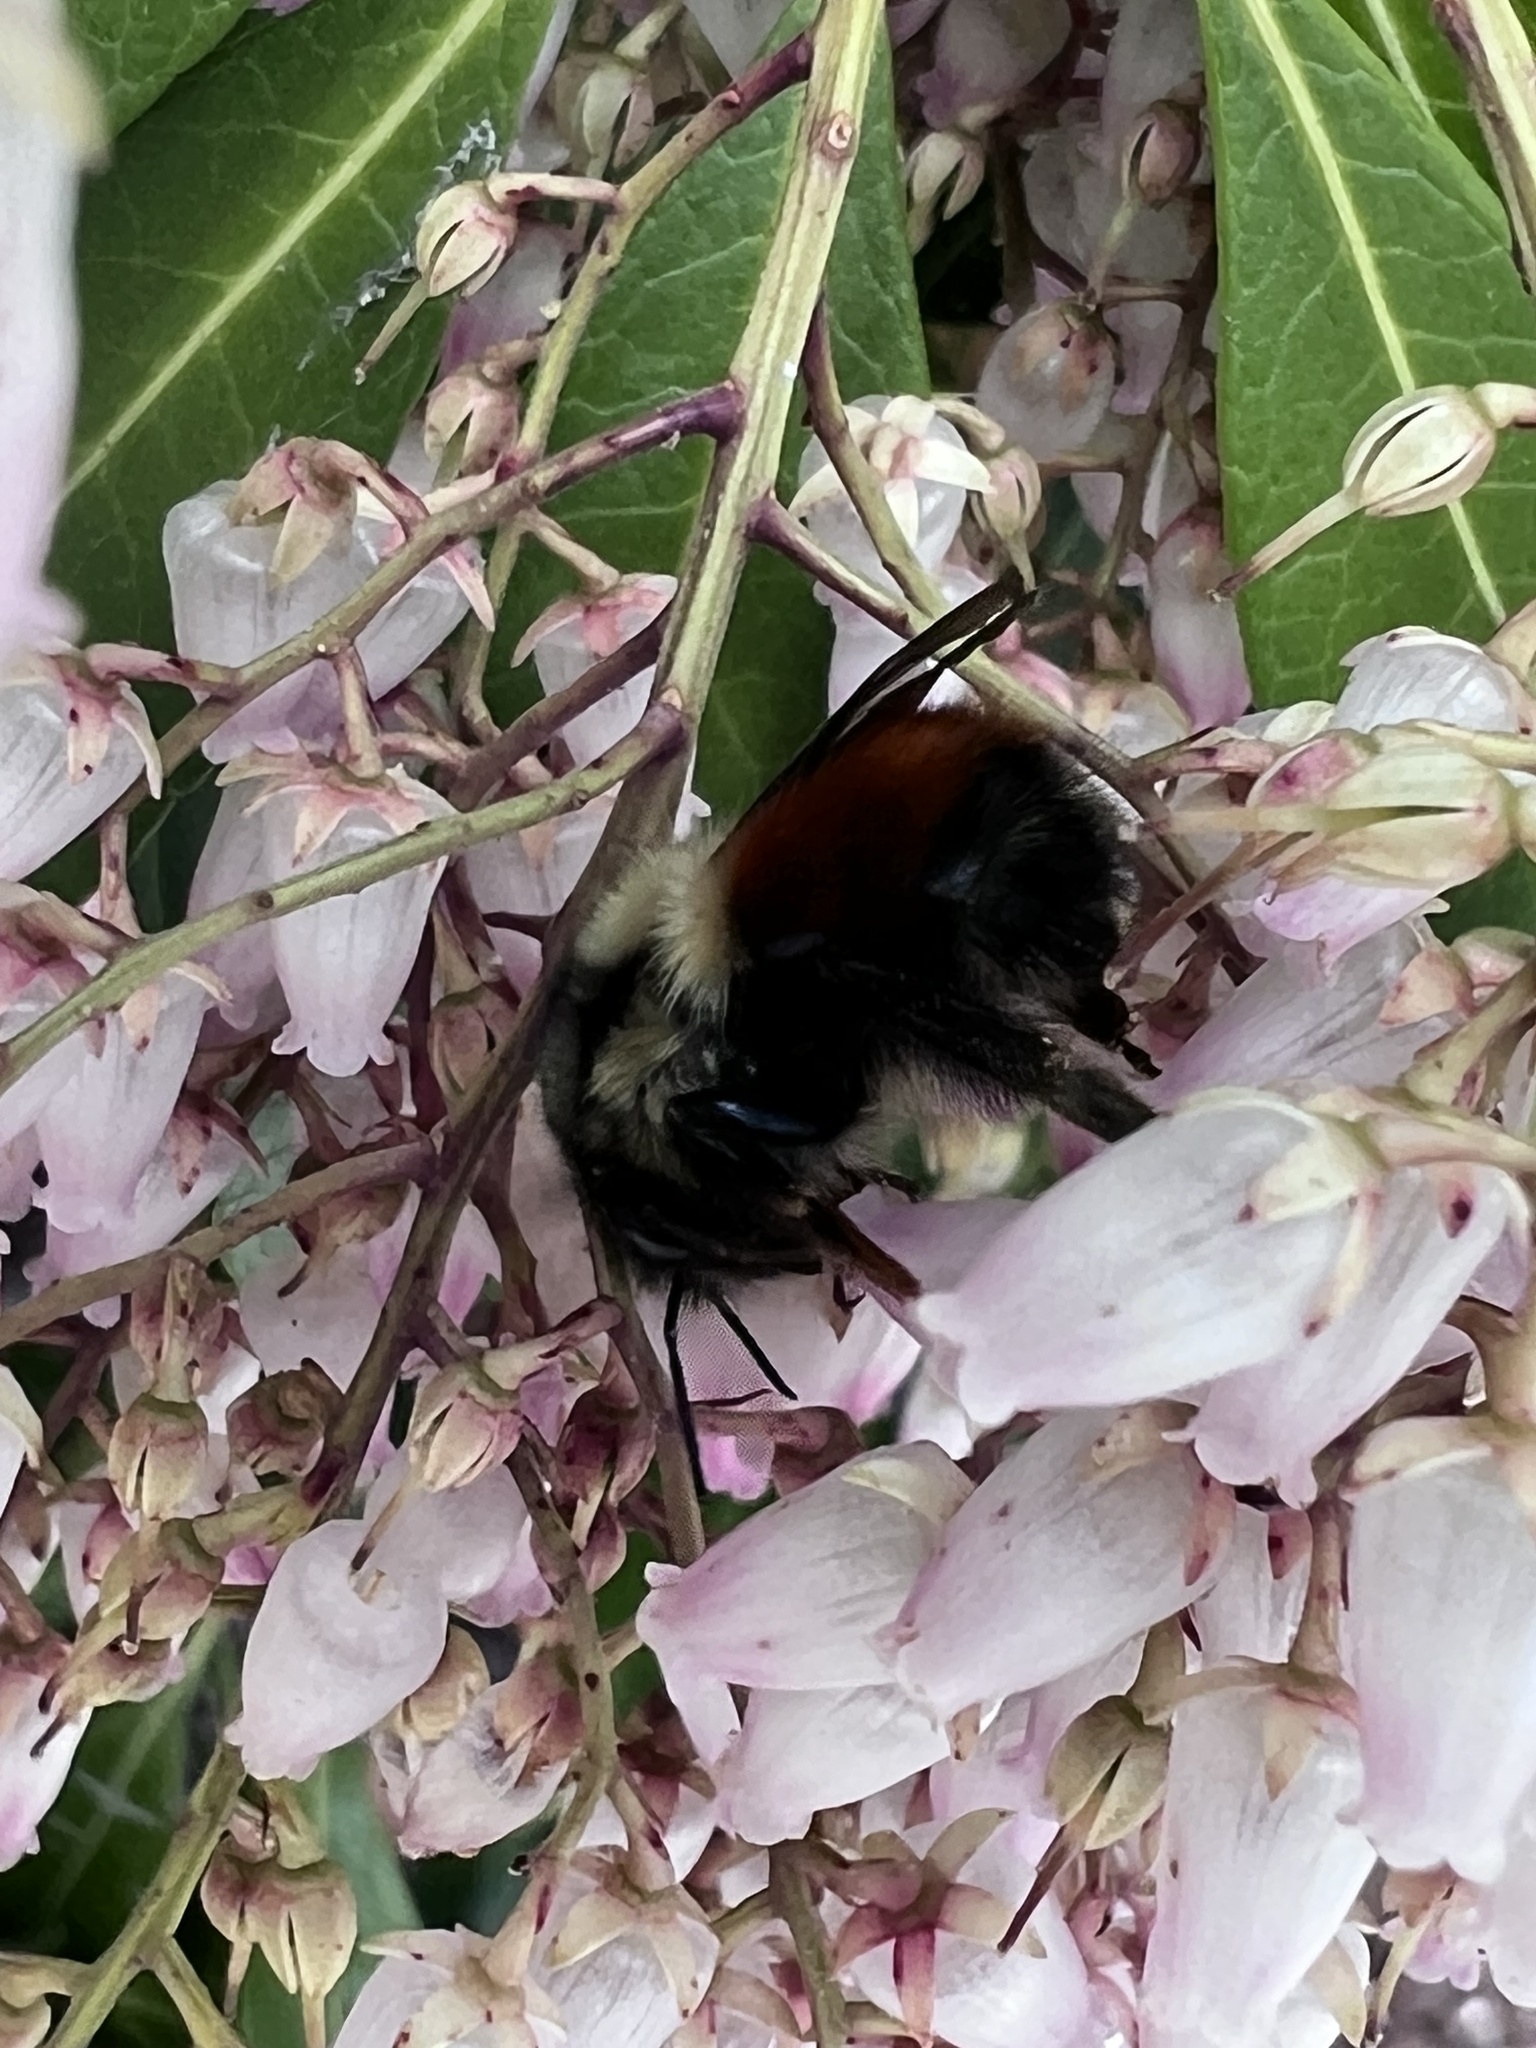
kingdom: Animalia
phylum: Arthropoda
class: Insecta
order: Hymenoptera
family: Apidae
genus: Bombus
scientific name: Bombus melanopygus
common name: Black tail bumble bee
